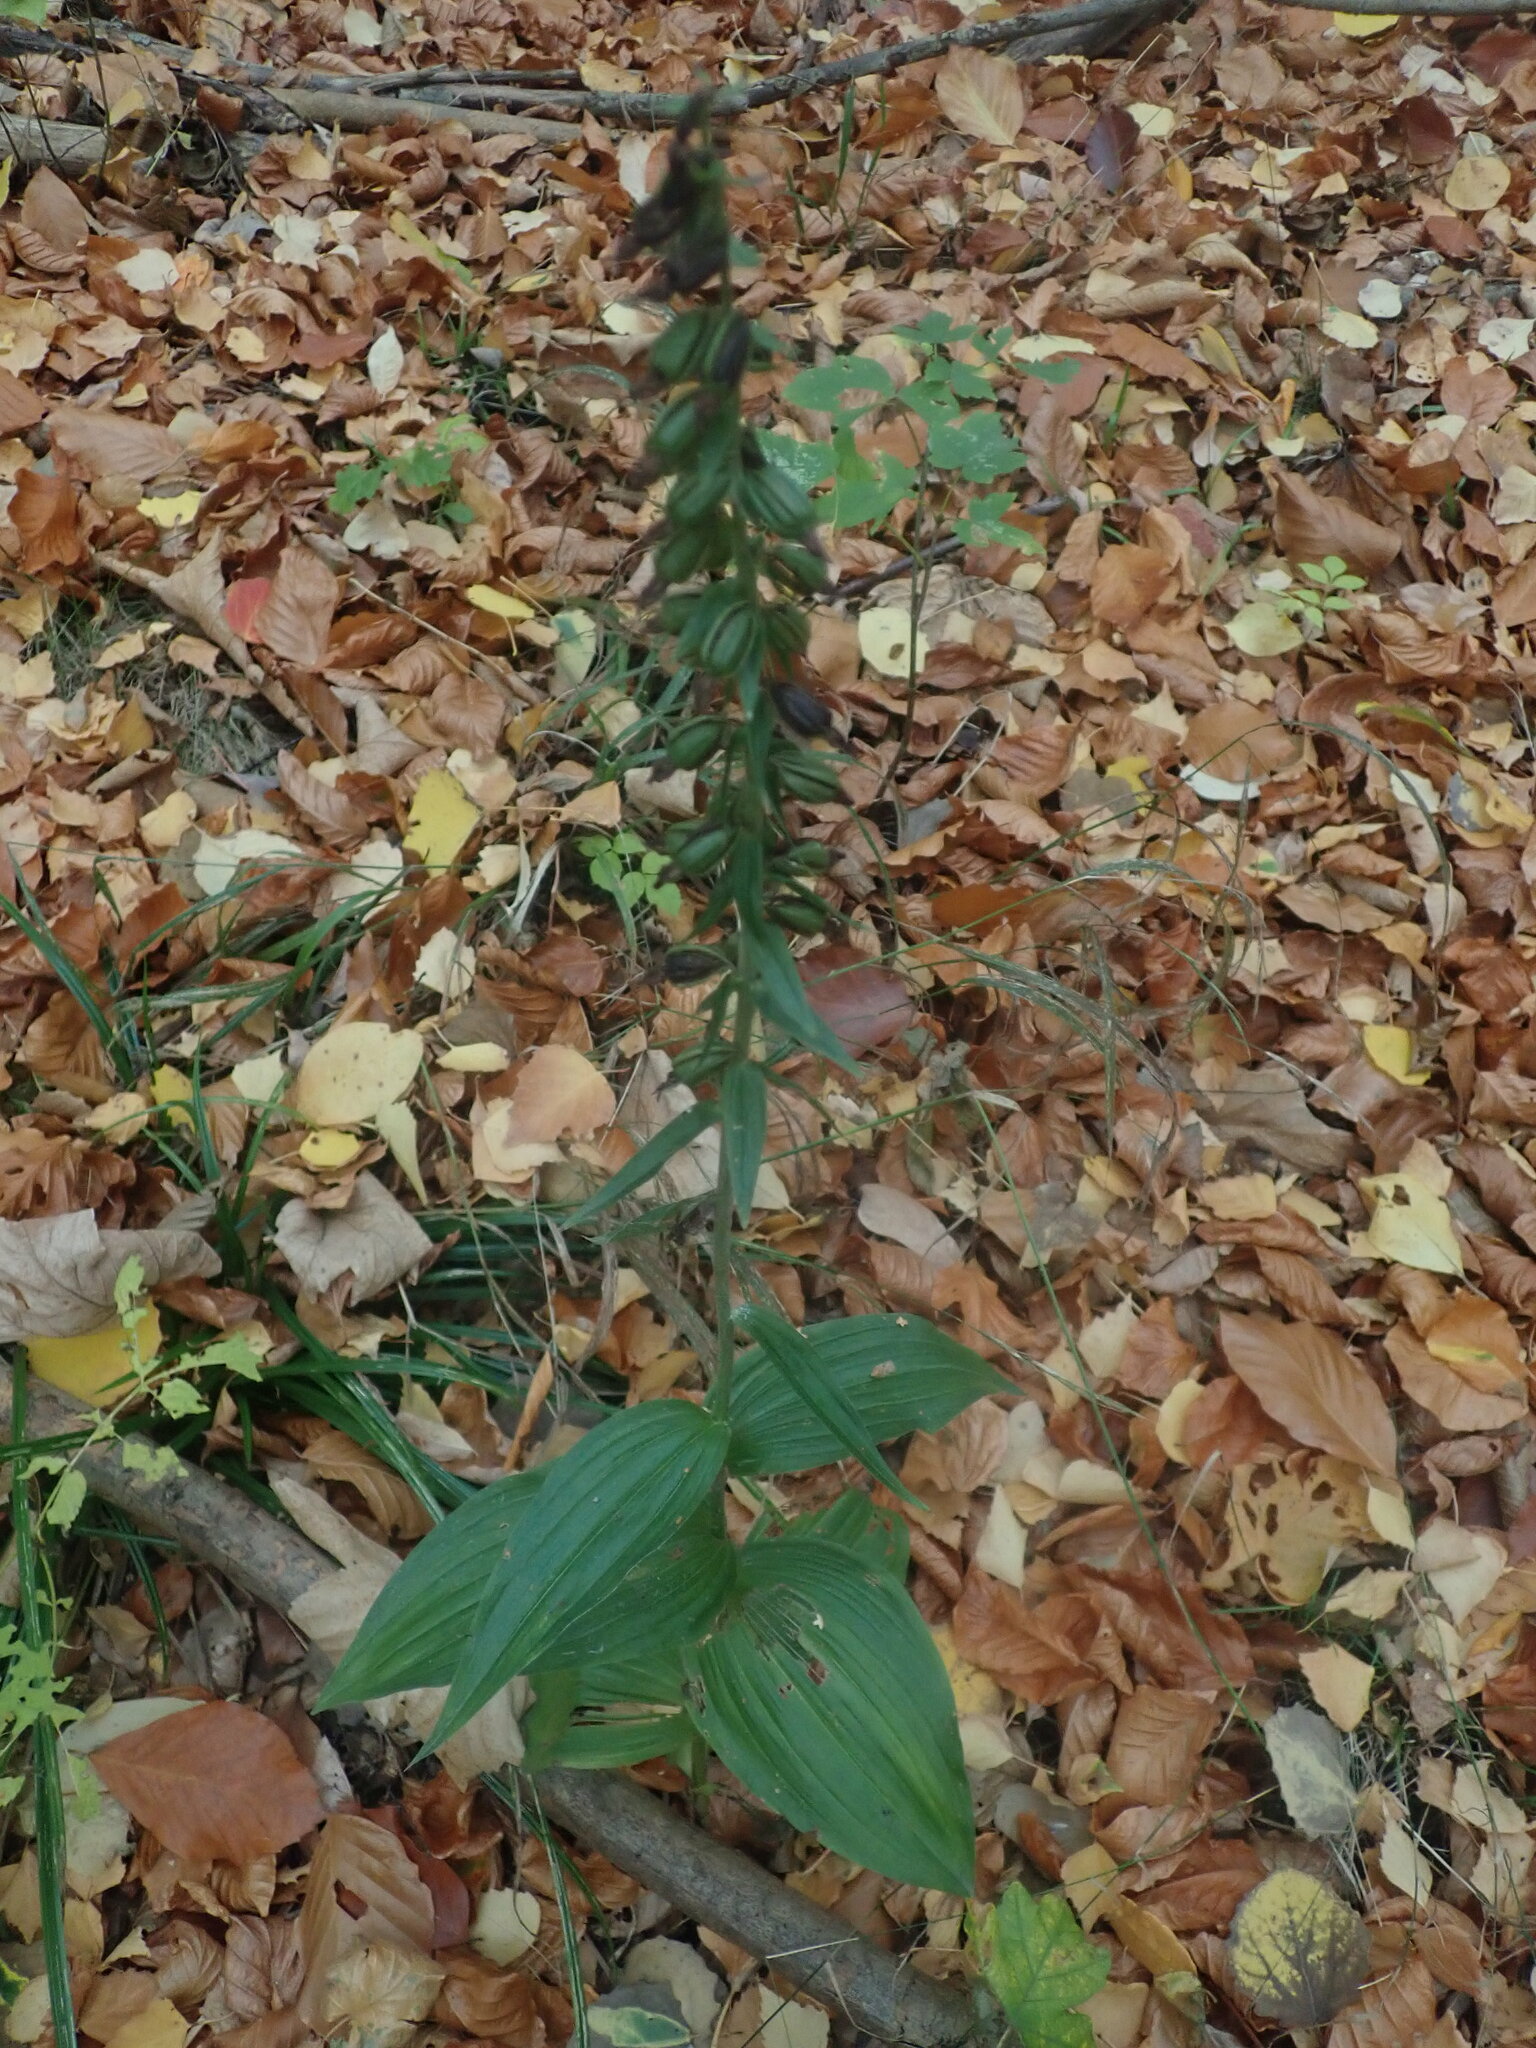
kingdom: Plantae
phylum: Tracheophyta
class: Liliopsida
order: Asparagales
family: Orchidaceae
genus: Epipactis
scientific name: Epipactis helleborine
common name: Broad-leaved helleborine
